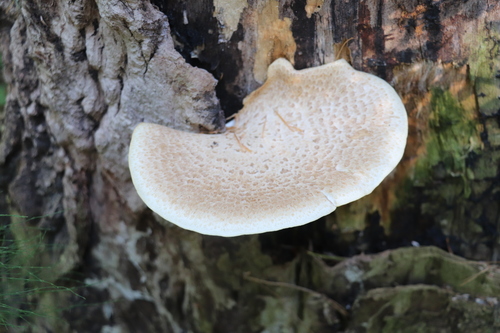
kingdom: Fungi
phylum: Basidiomycota
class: Agaricomycetes
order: Polyporales
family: Polyporaceae
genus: Cerioporus
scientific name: Cerioporus squamosus
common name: Dryad's saddle
